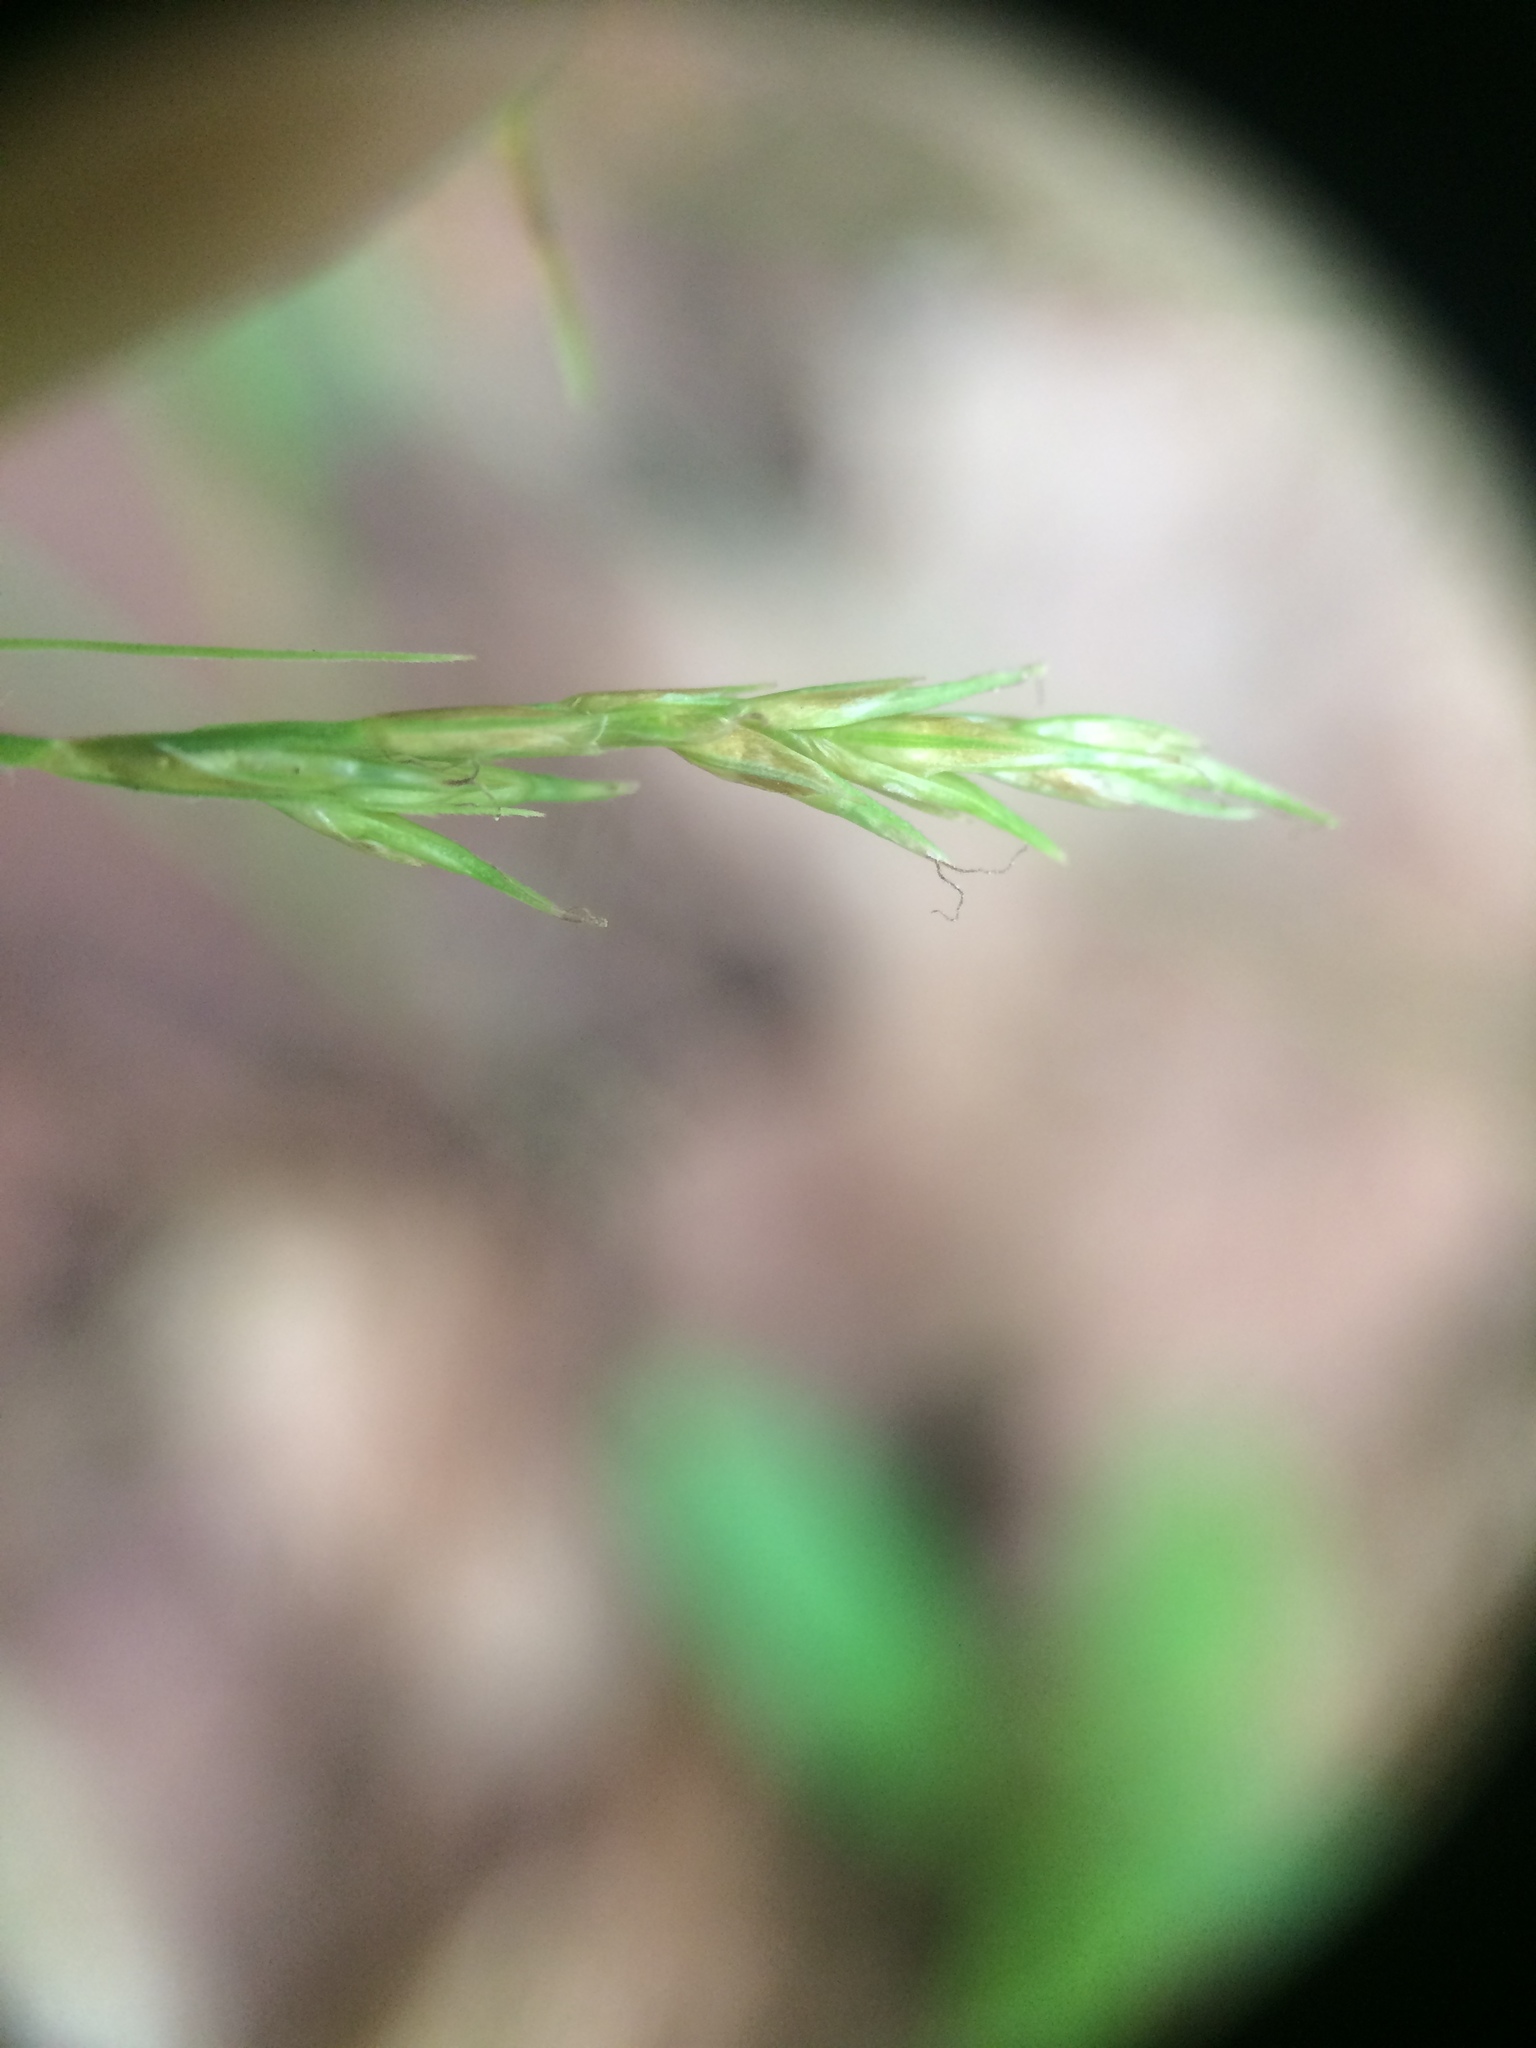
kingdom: Plantae
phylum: Tracheophyta
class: Liliopsida
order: Poales
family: Cyperaceae
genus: Carex
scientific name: Carex bromoides
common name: Brome hummock sedge
